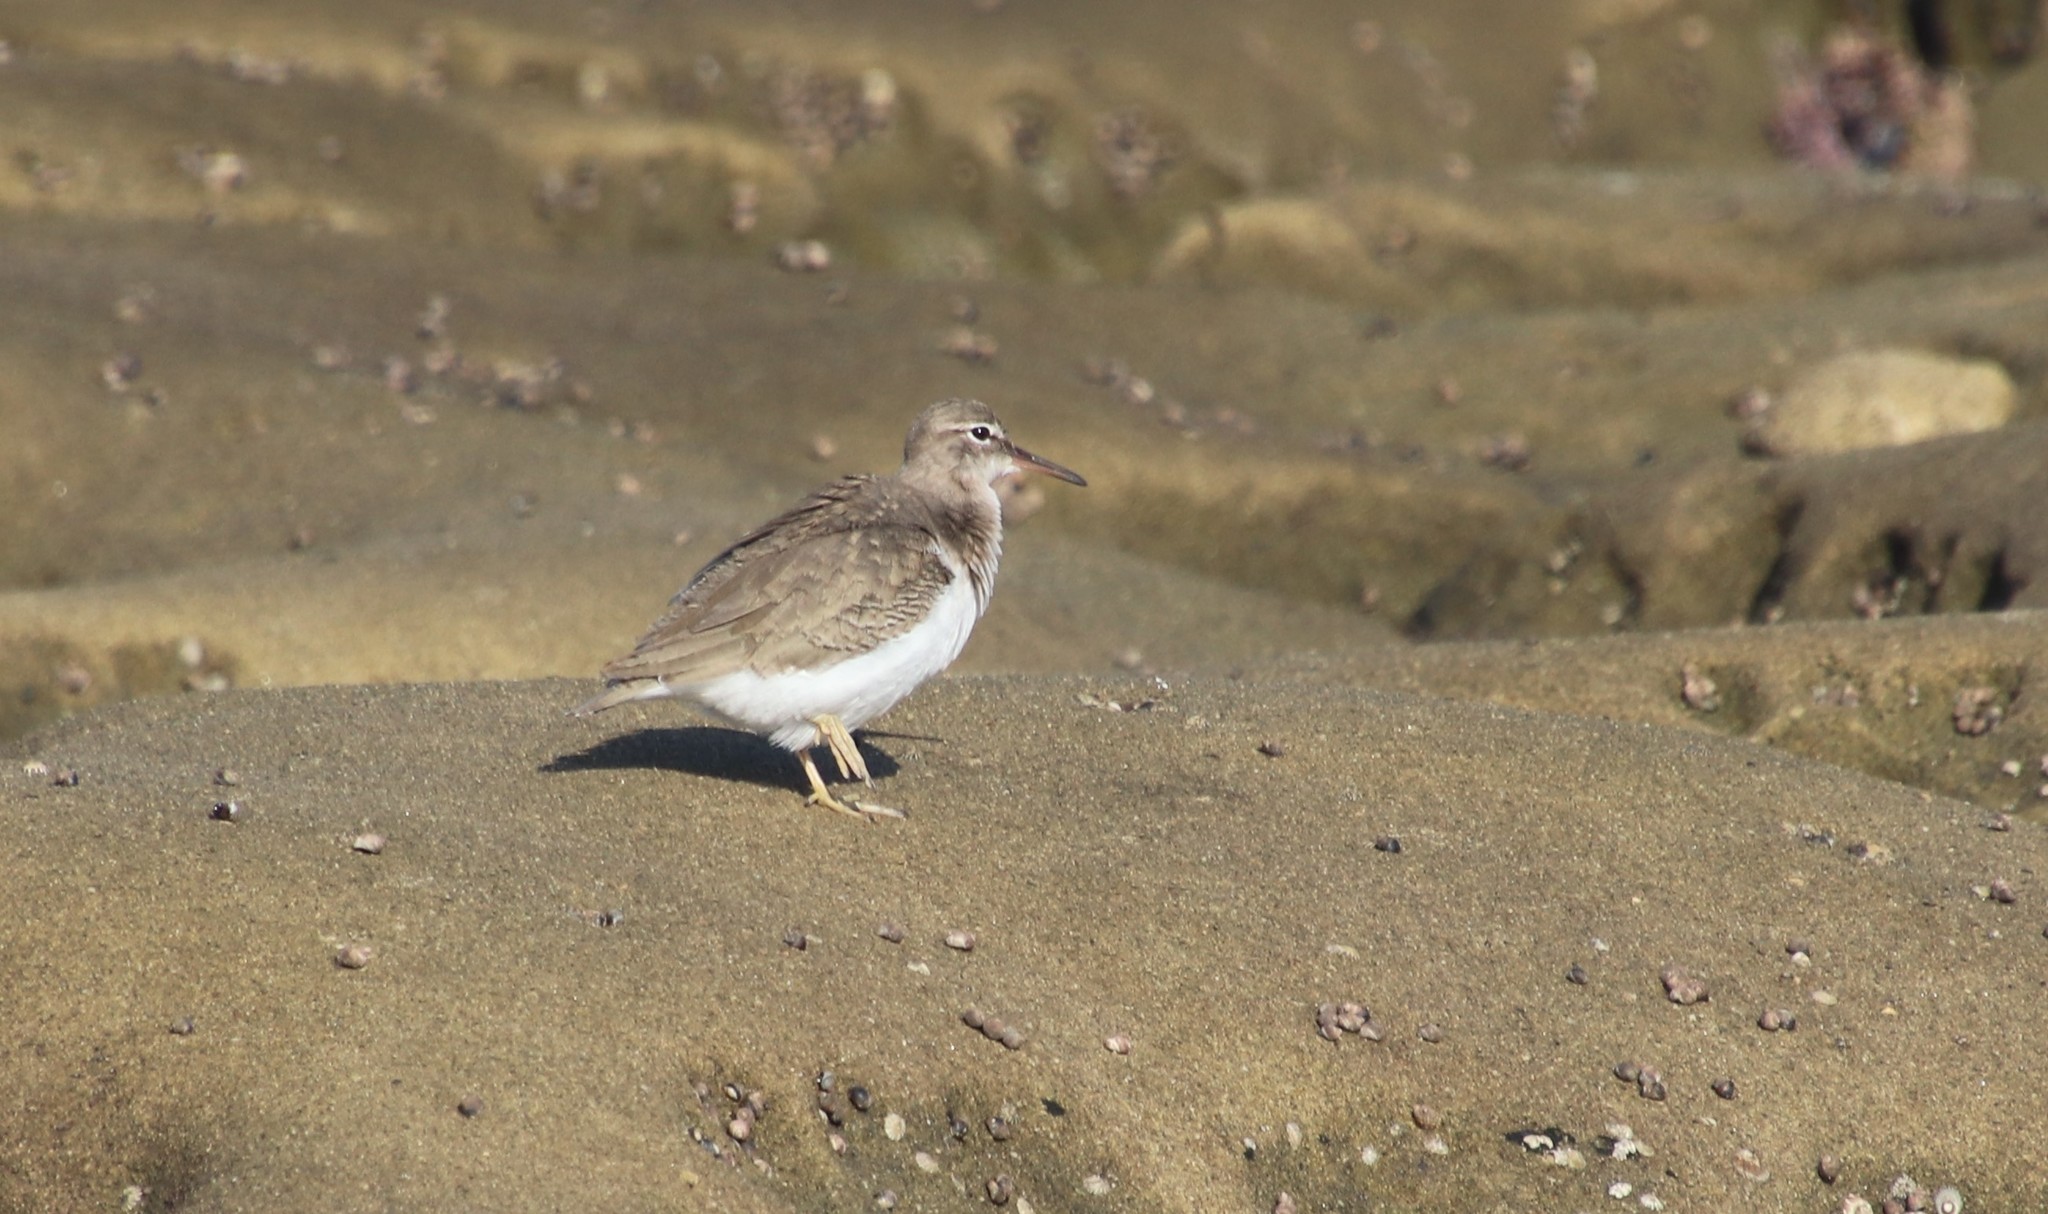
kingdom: Animalia
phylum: Chordata
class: Aves
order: Charadriiformes
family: Scolopacidae
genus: Actitis
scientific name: Actitis macularius
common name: Spotted sandpiper
